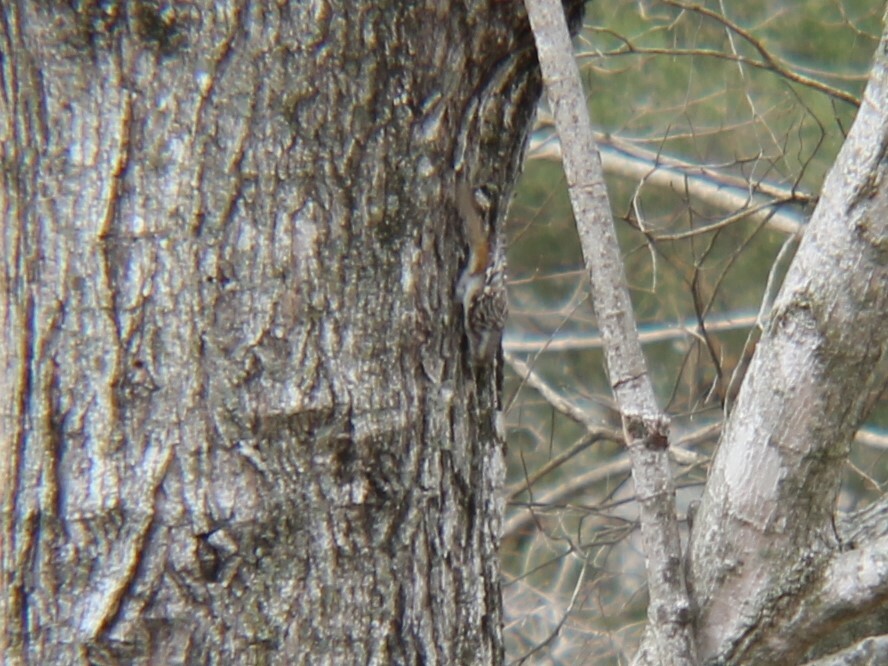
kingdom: Animalia
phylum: Chordata
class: Aves
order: Passeriformes
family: Certhiidae
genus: Certhia
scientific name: Certhia americana
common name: Brown creeper
